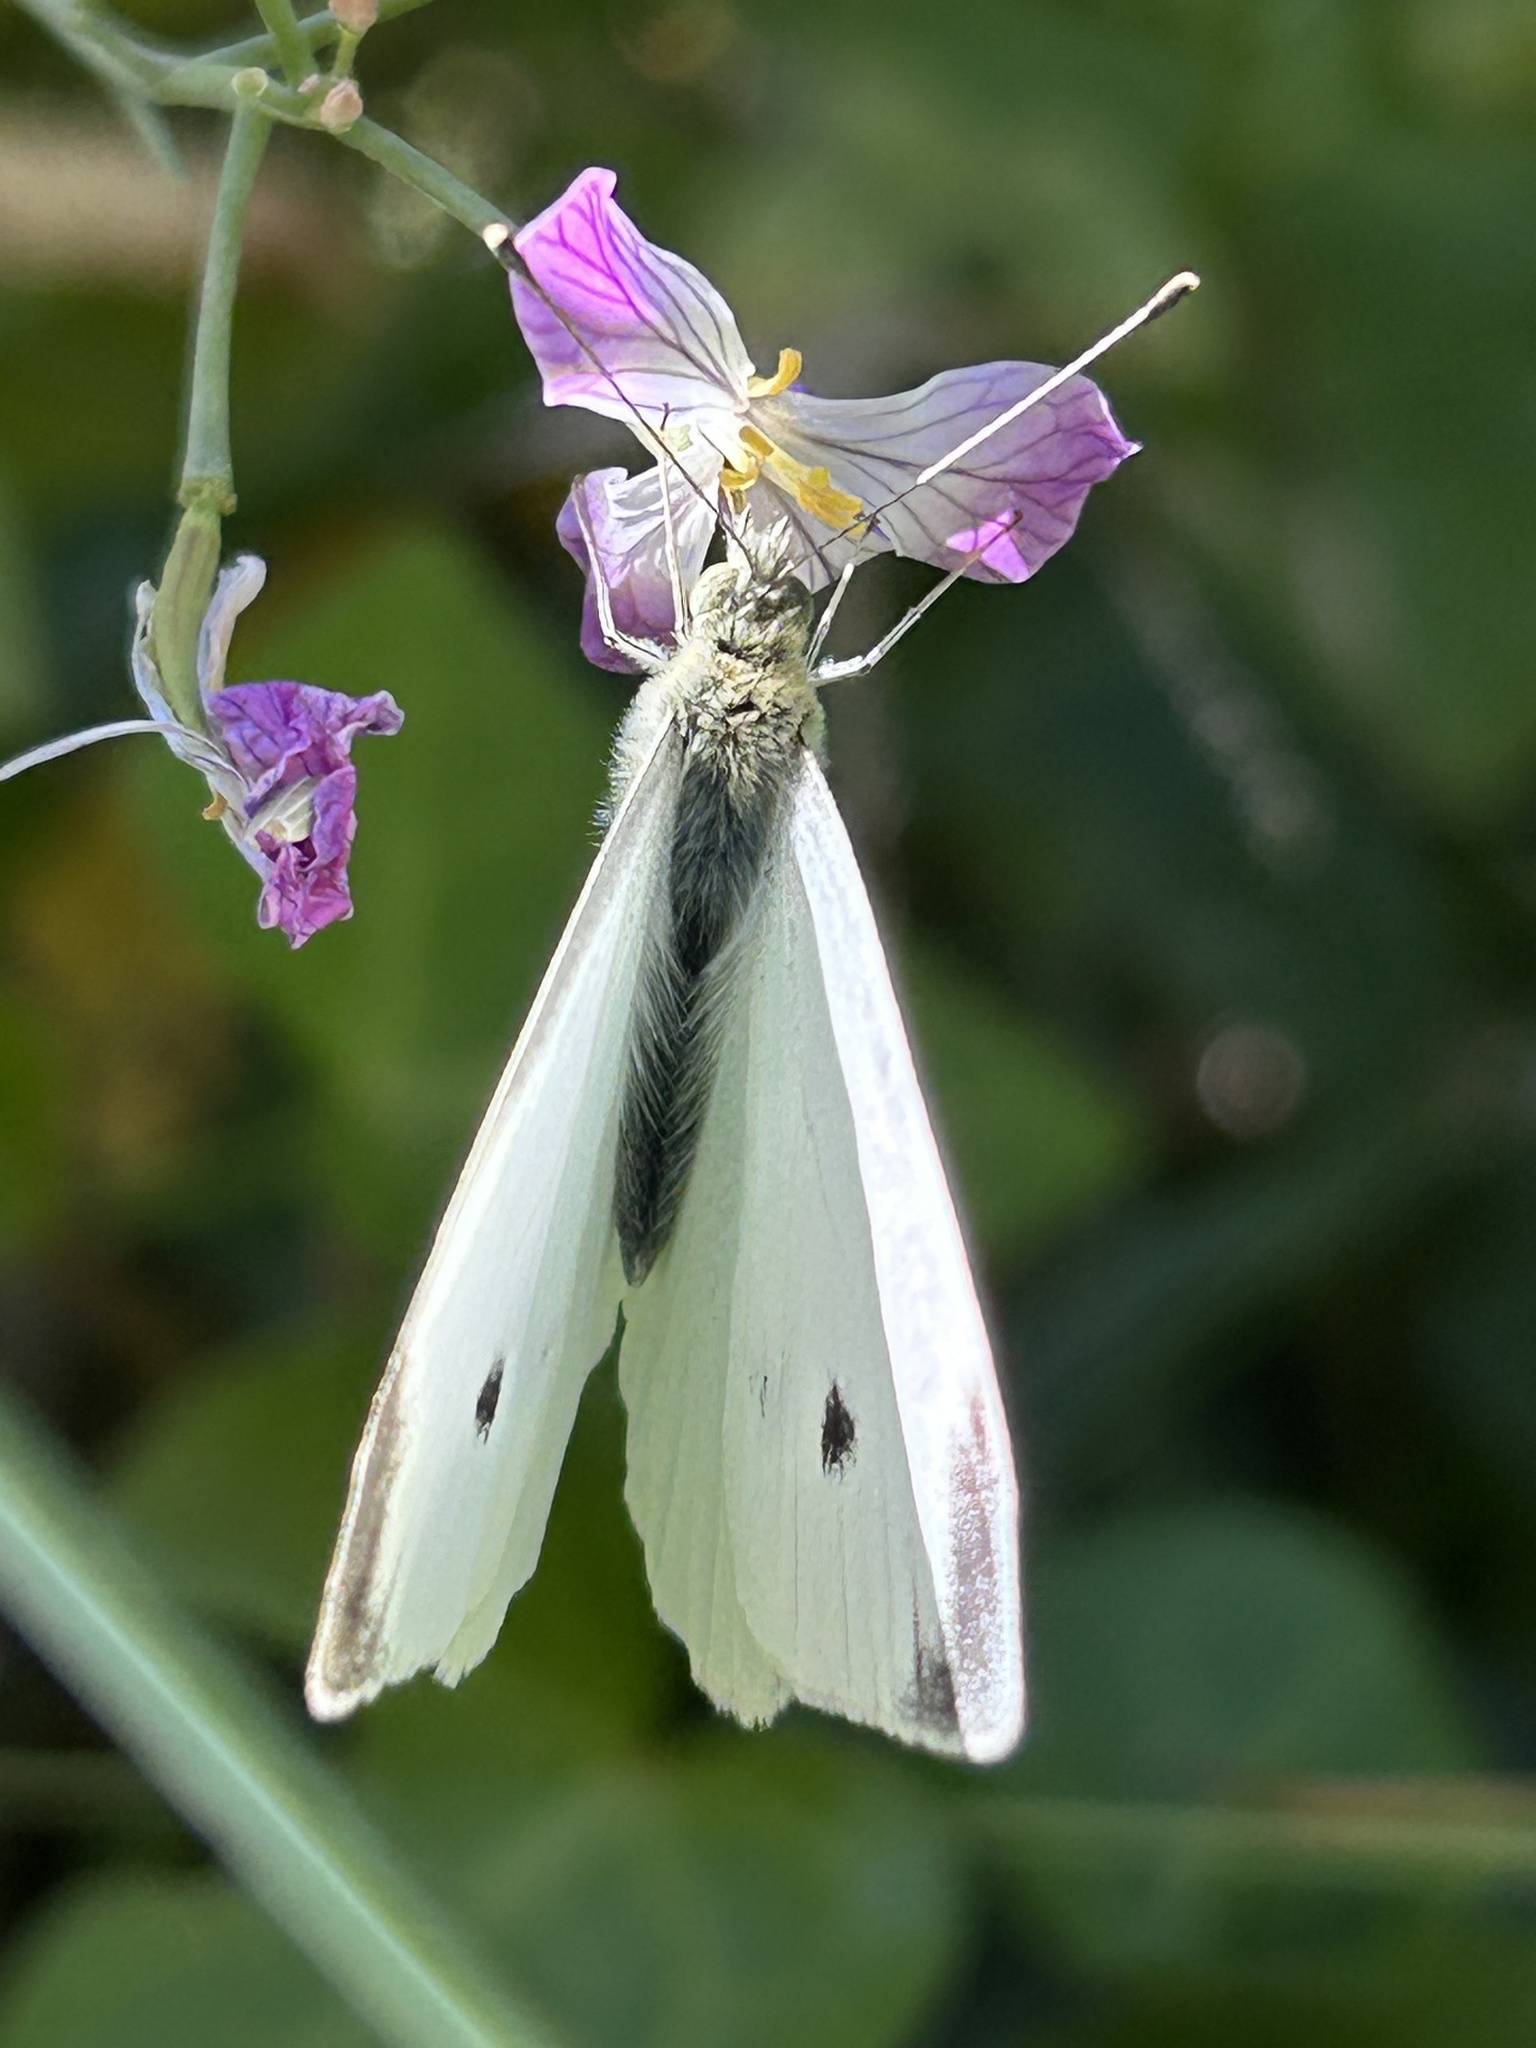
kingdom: Animalia
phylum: Arthropoda
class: Insecta
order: Lepidoptera
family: Pieridae
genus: Pieris
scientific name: Pieris rapae
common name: Small white
